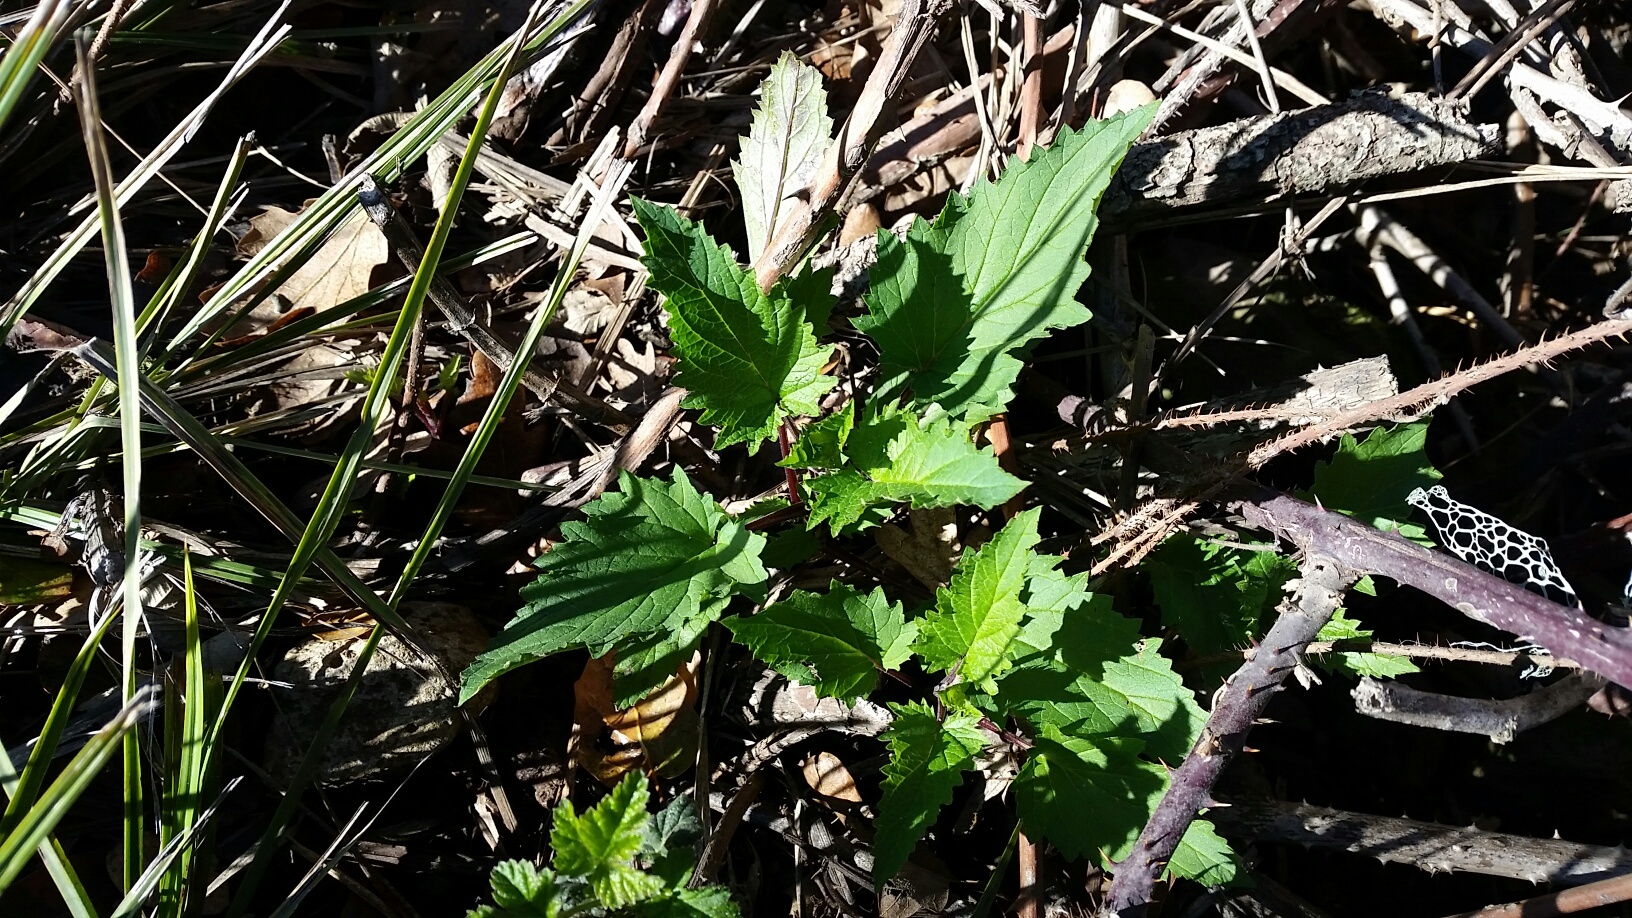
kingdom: Plantae
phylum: Tracheophyta
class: Magnoliopsida
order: Lamiales
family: Scrophulariaceae
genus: Scrophularia
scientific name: Scrophularia californica
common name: California figwort
